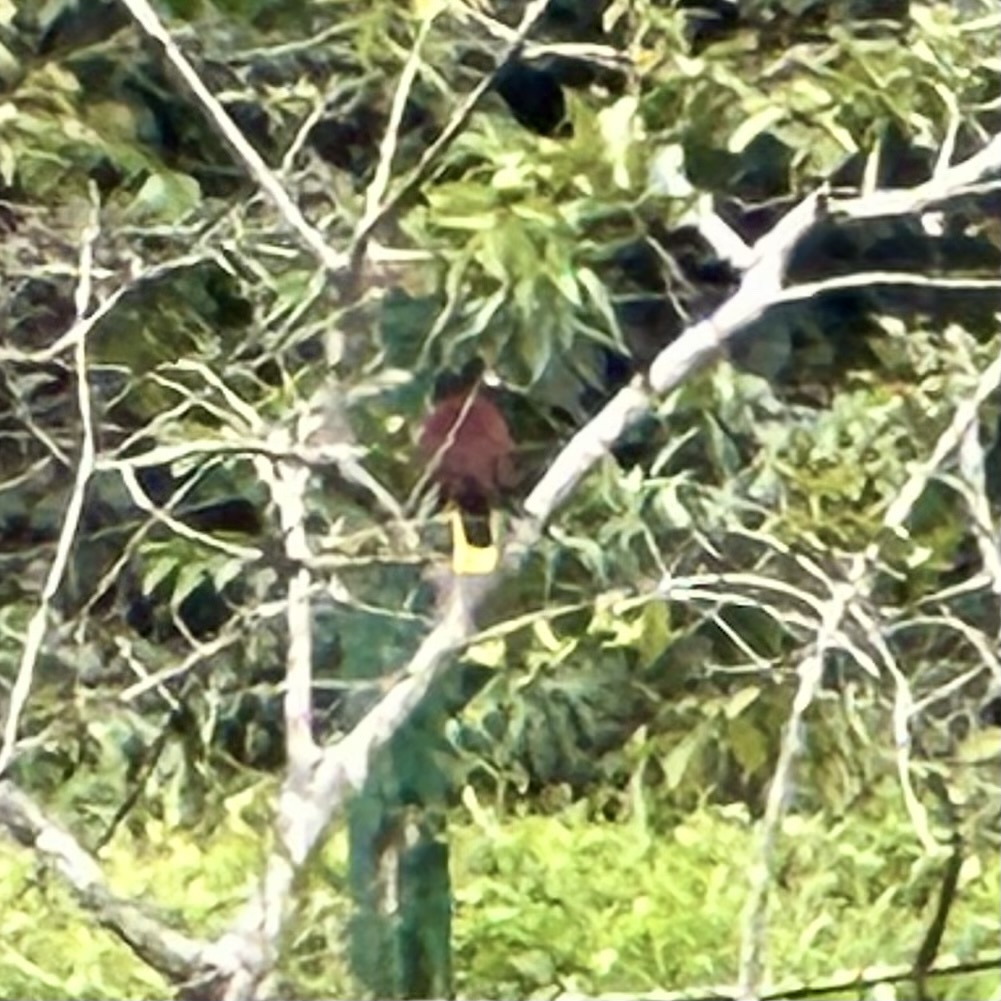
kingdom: Animalia
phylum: Chordata
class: Aves
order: Passeriformes
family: Icteridae
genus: Psarocolius
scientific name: Psarocolius montezuma
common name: Montezuma oropendola
